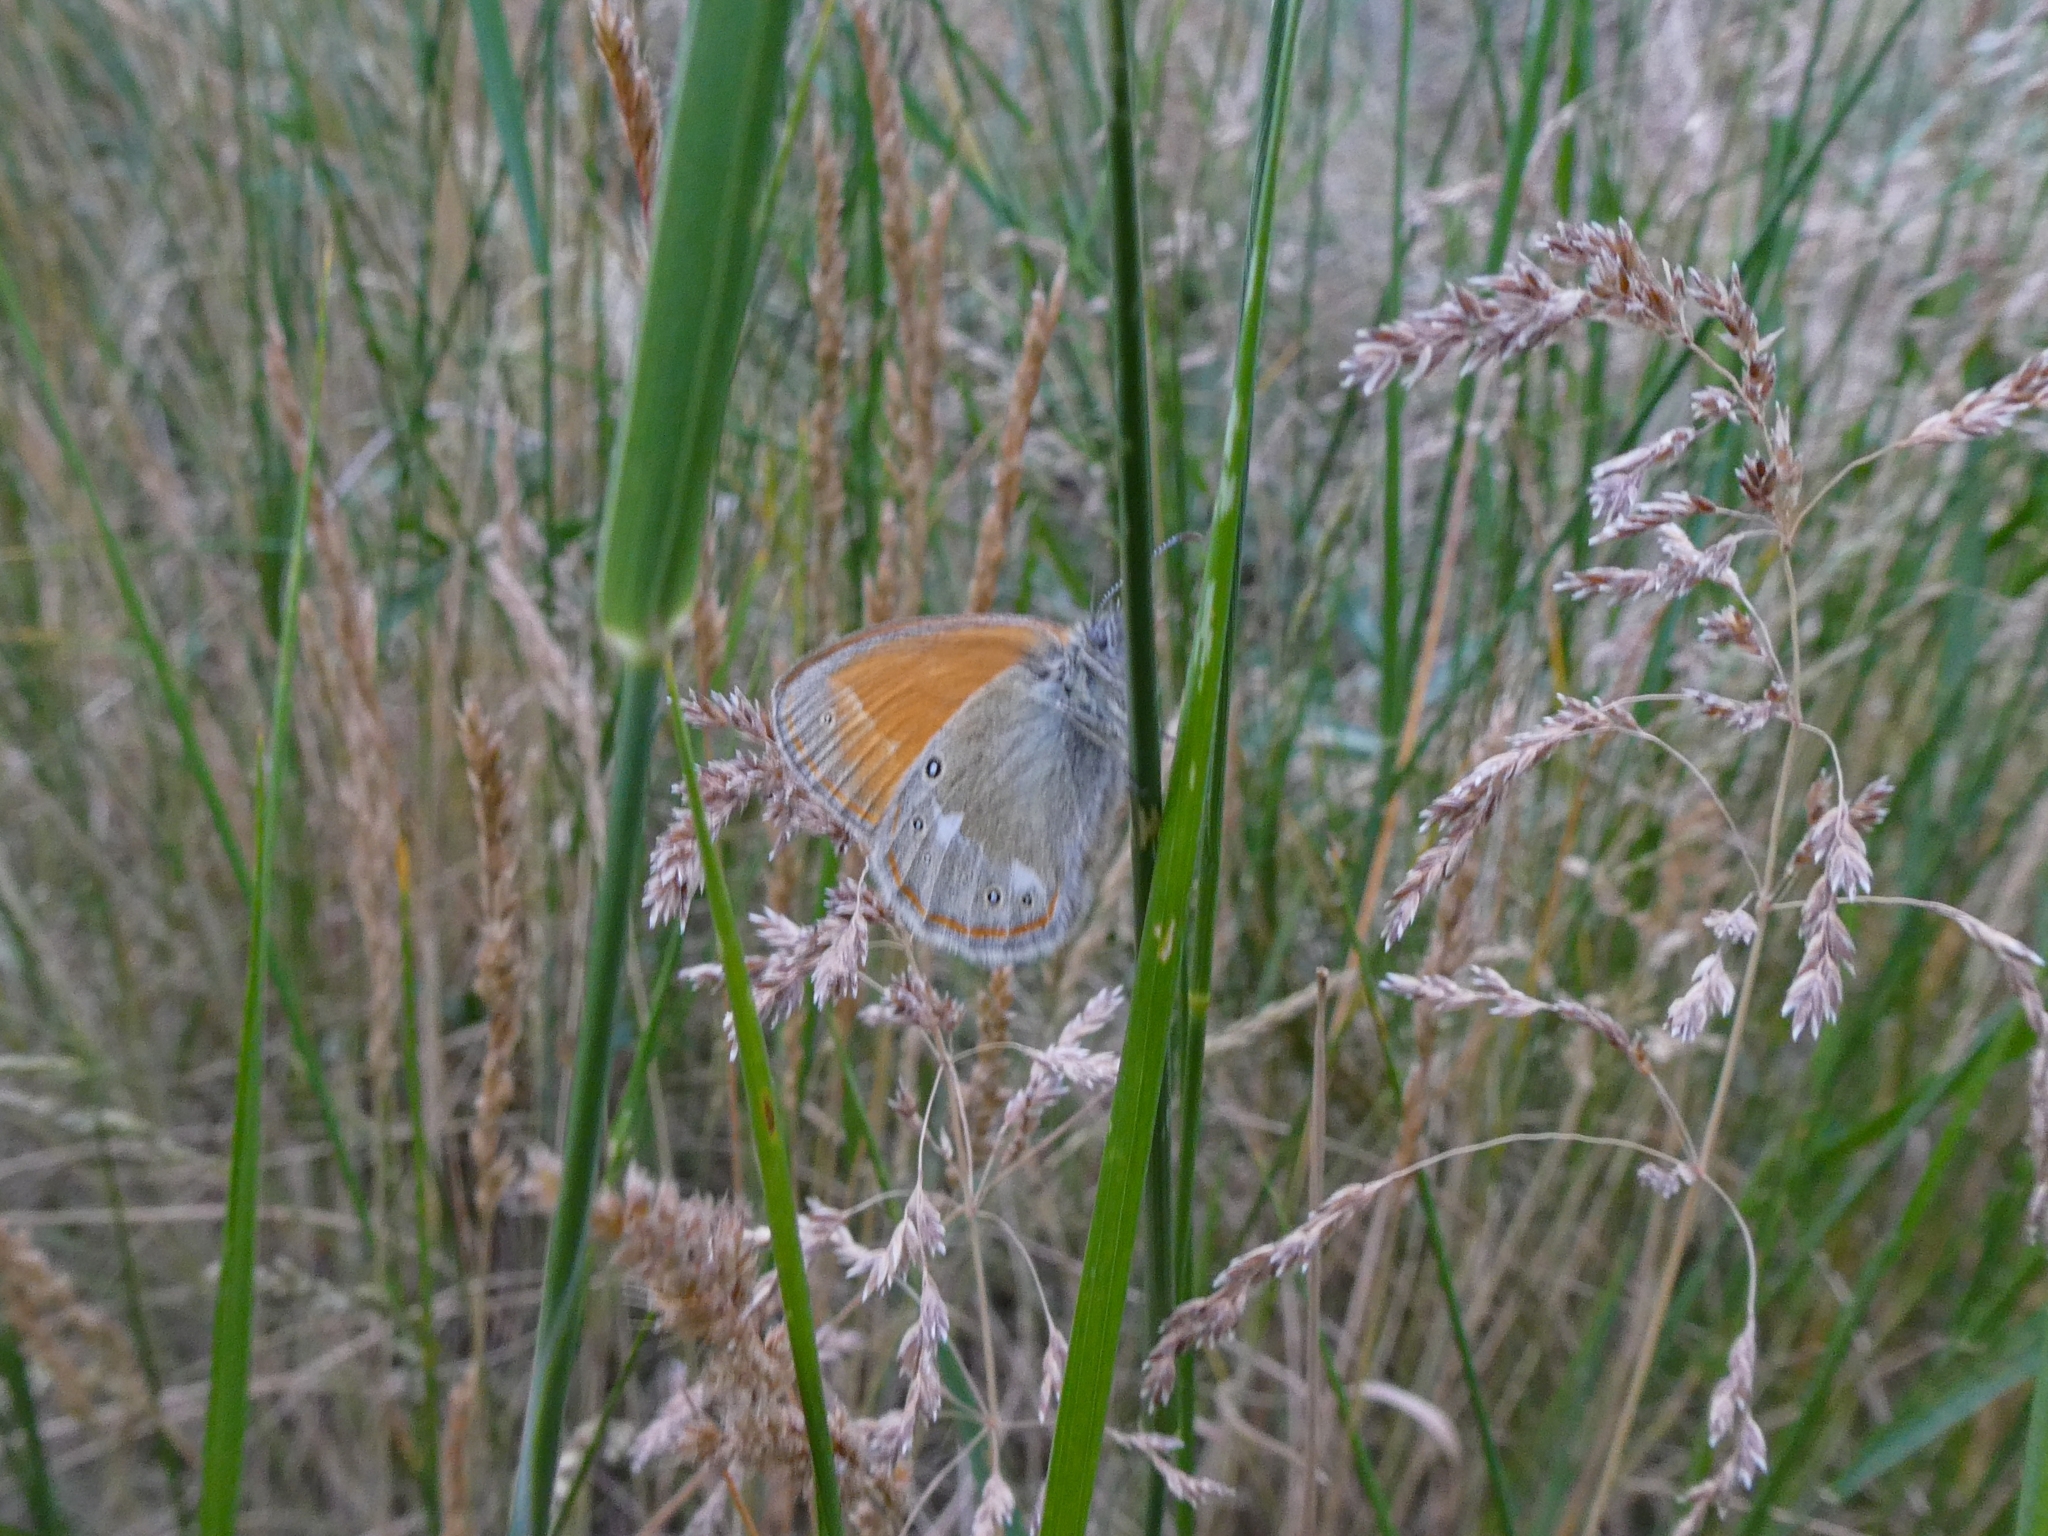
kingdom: Animalia
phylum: Arthropoda
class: Insecta
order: Lepidoptera
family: Nymphalidae
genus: Coenonympha
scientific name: Coenonympha iphis
